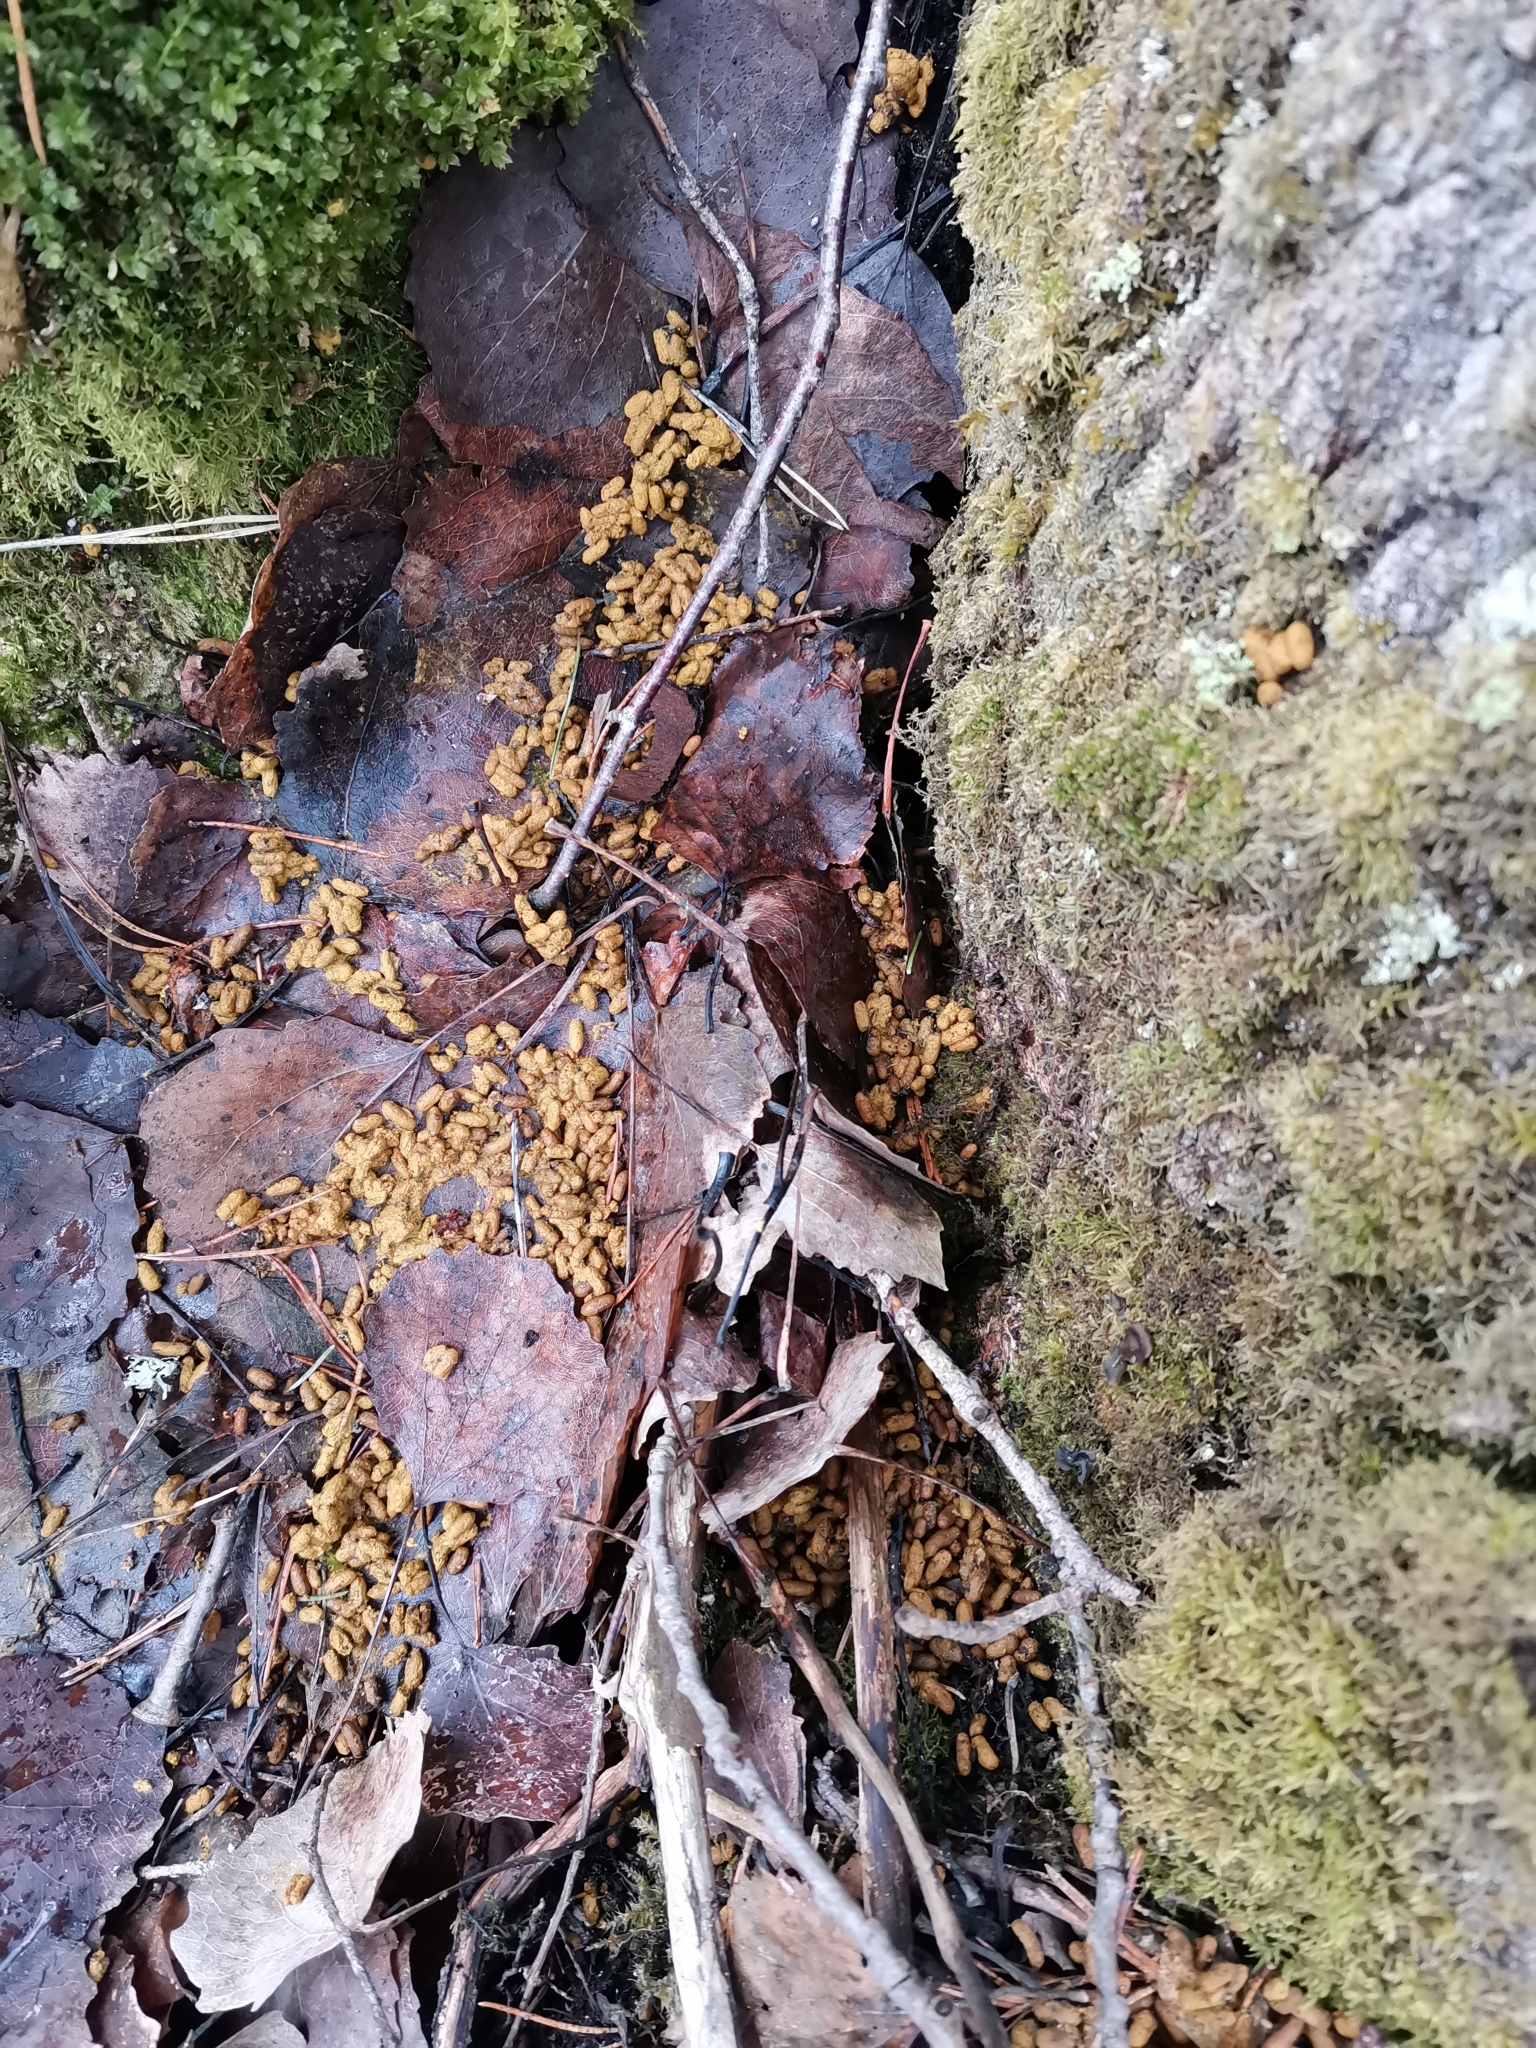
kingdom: Animalia
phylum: Chordata
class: Mammalia
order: Rodentia
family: Sciuridae
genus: Pteromys
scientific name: Pteromys volans
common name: Siberian flying squirrel
